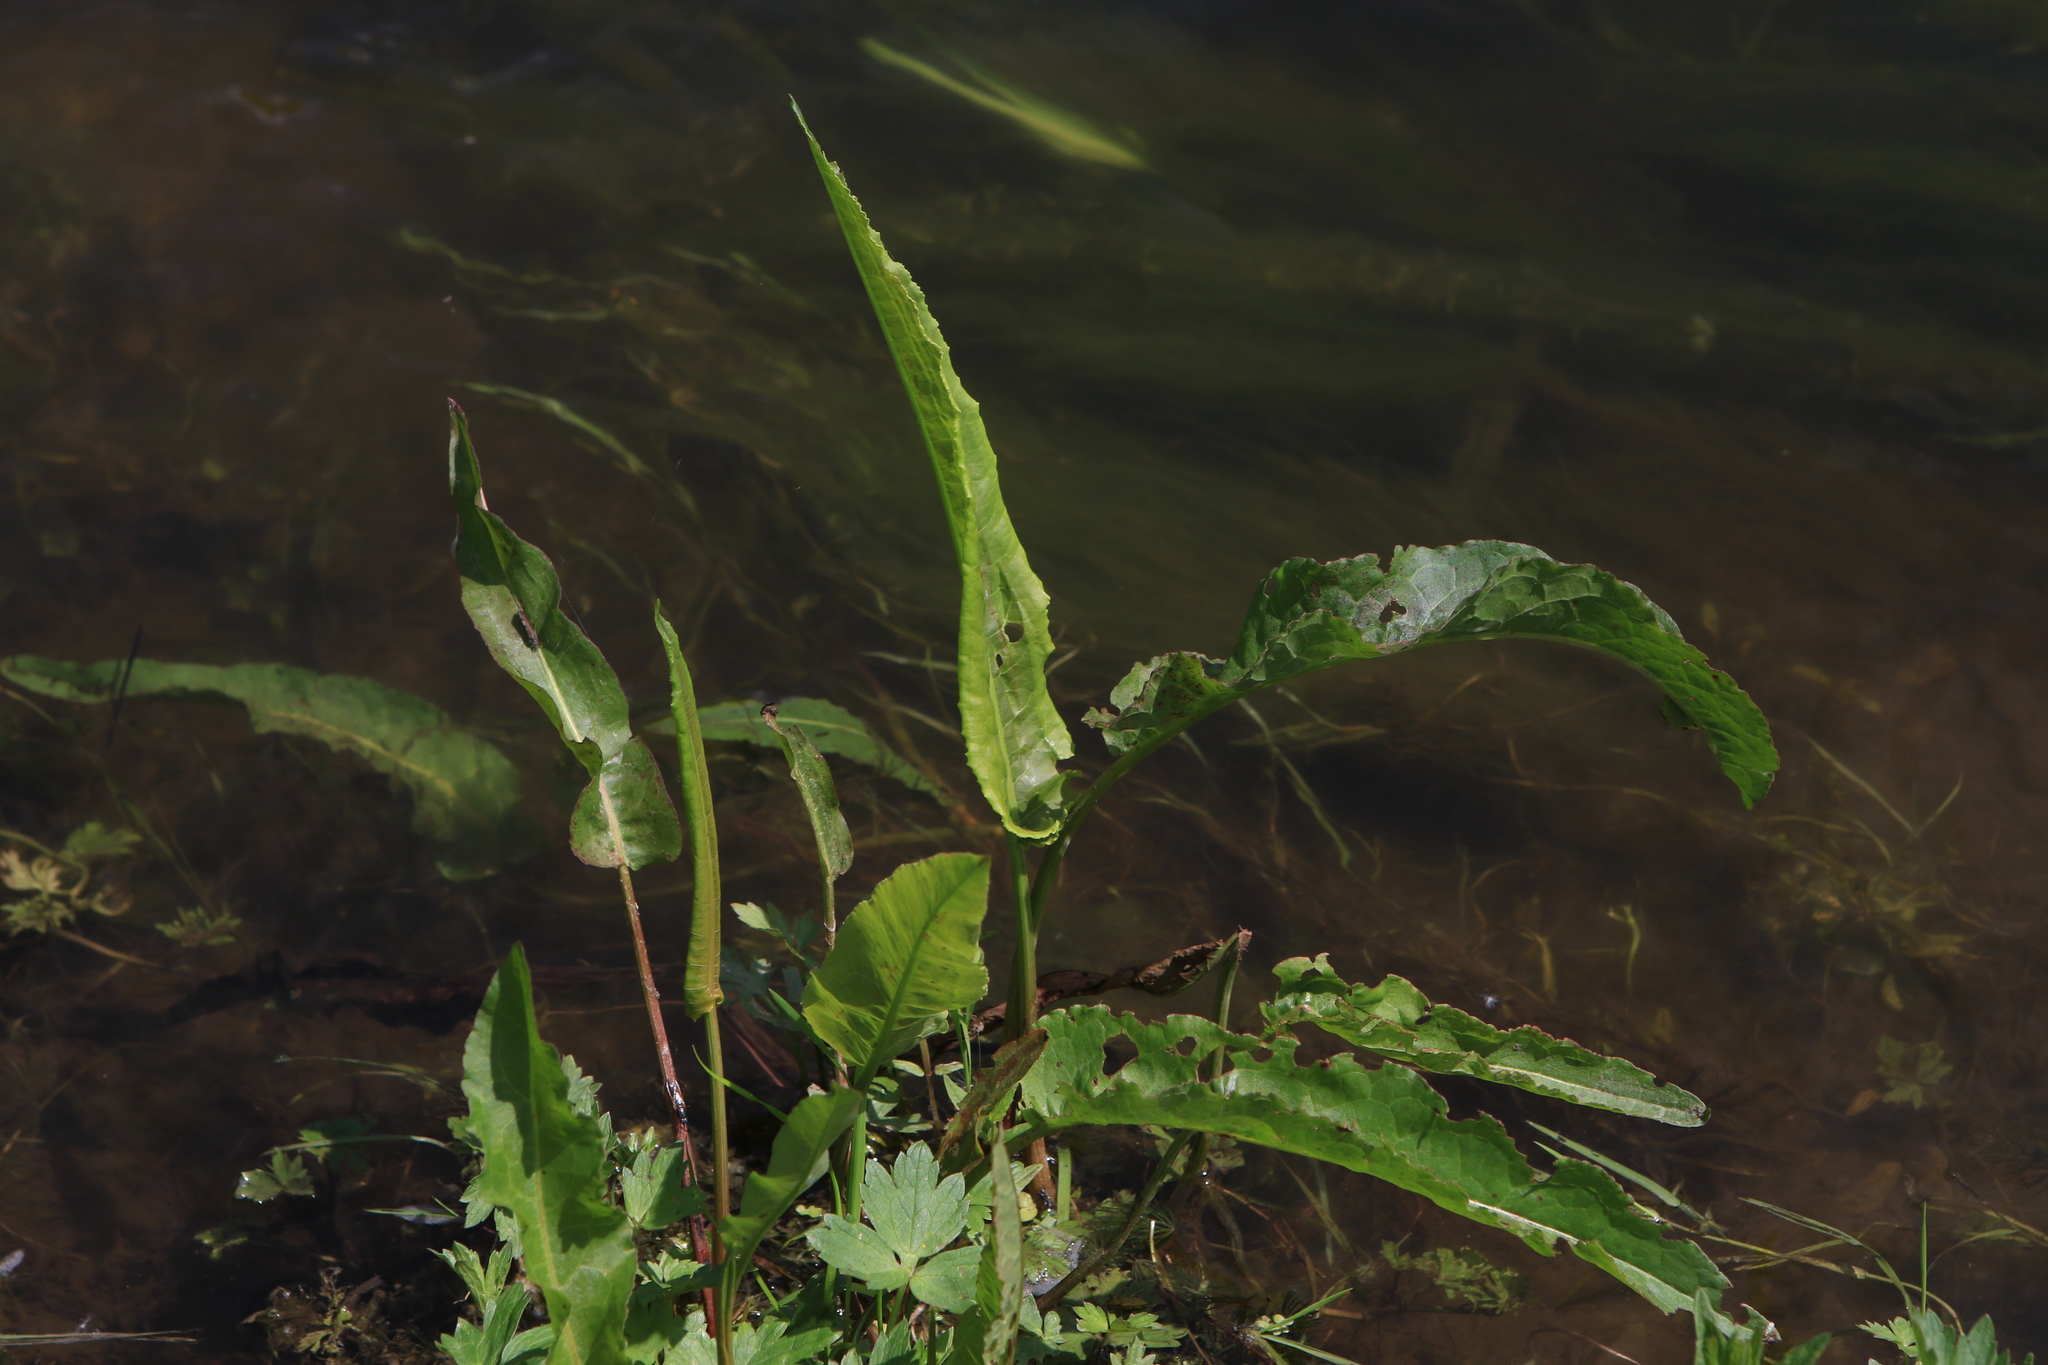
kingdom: Plantae
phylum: Tracheophyta
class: Magnoliopsida
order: Caryophyllales
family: Polygonaceae
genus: Rumex
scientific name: Rumex aquaticus
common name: Scottish dock
